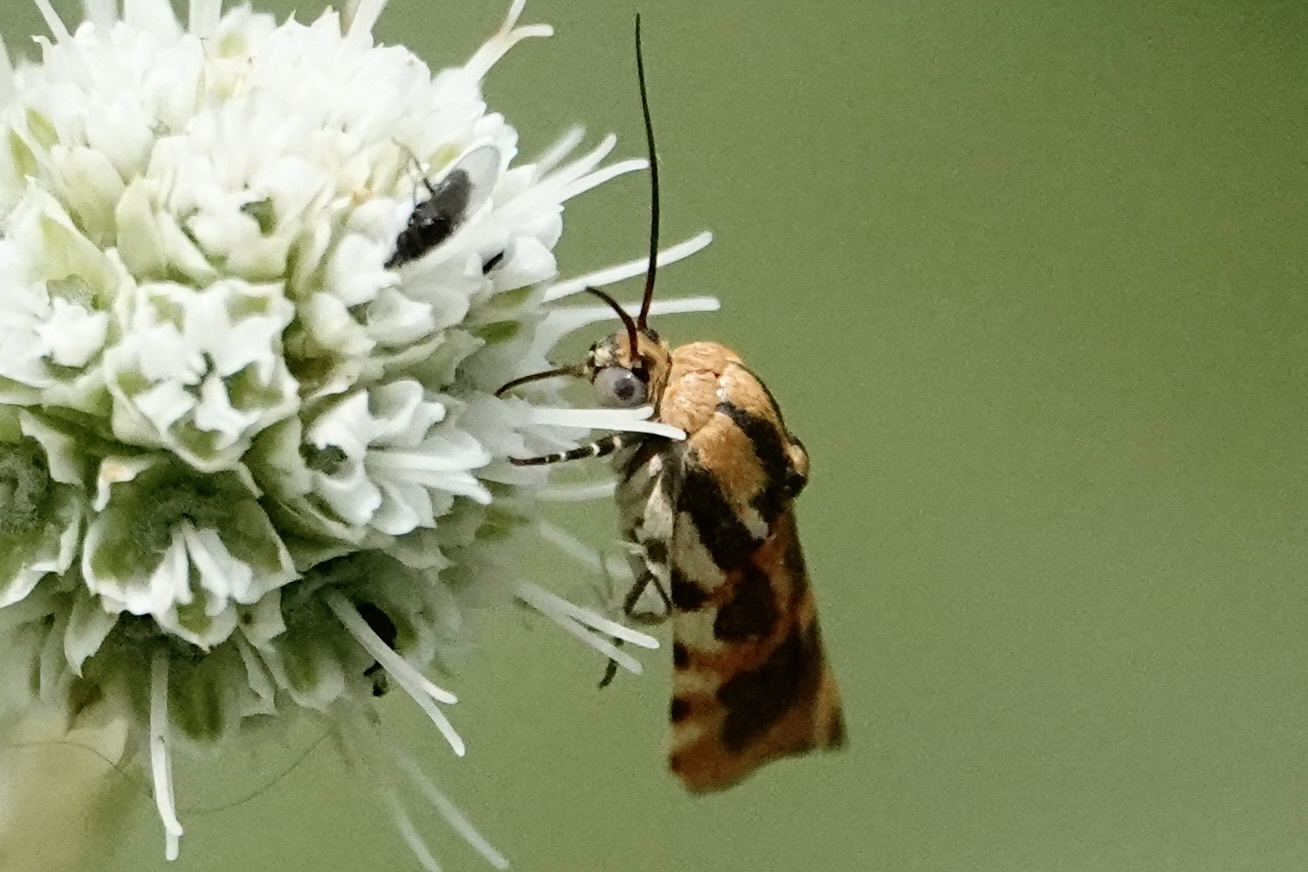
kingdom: Animalia
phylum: Arthropoda
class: Insecta
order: Lepidoptera
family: Noctuidae
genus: Acontia
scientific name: Acontia leo
